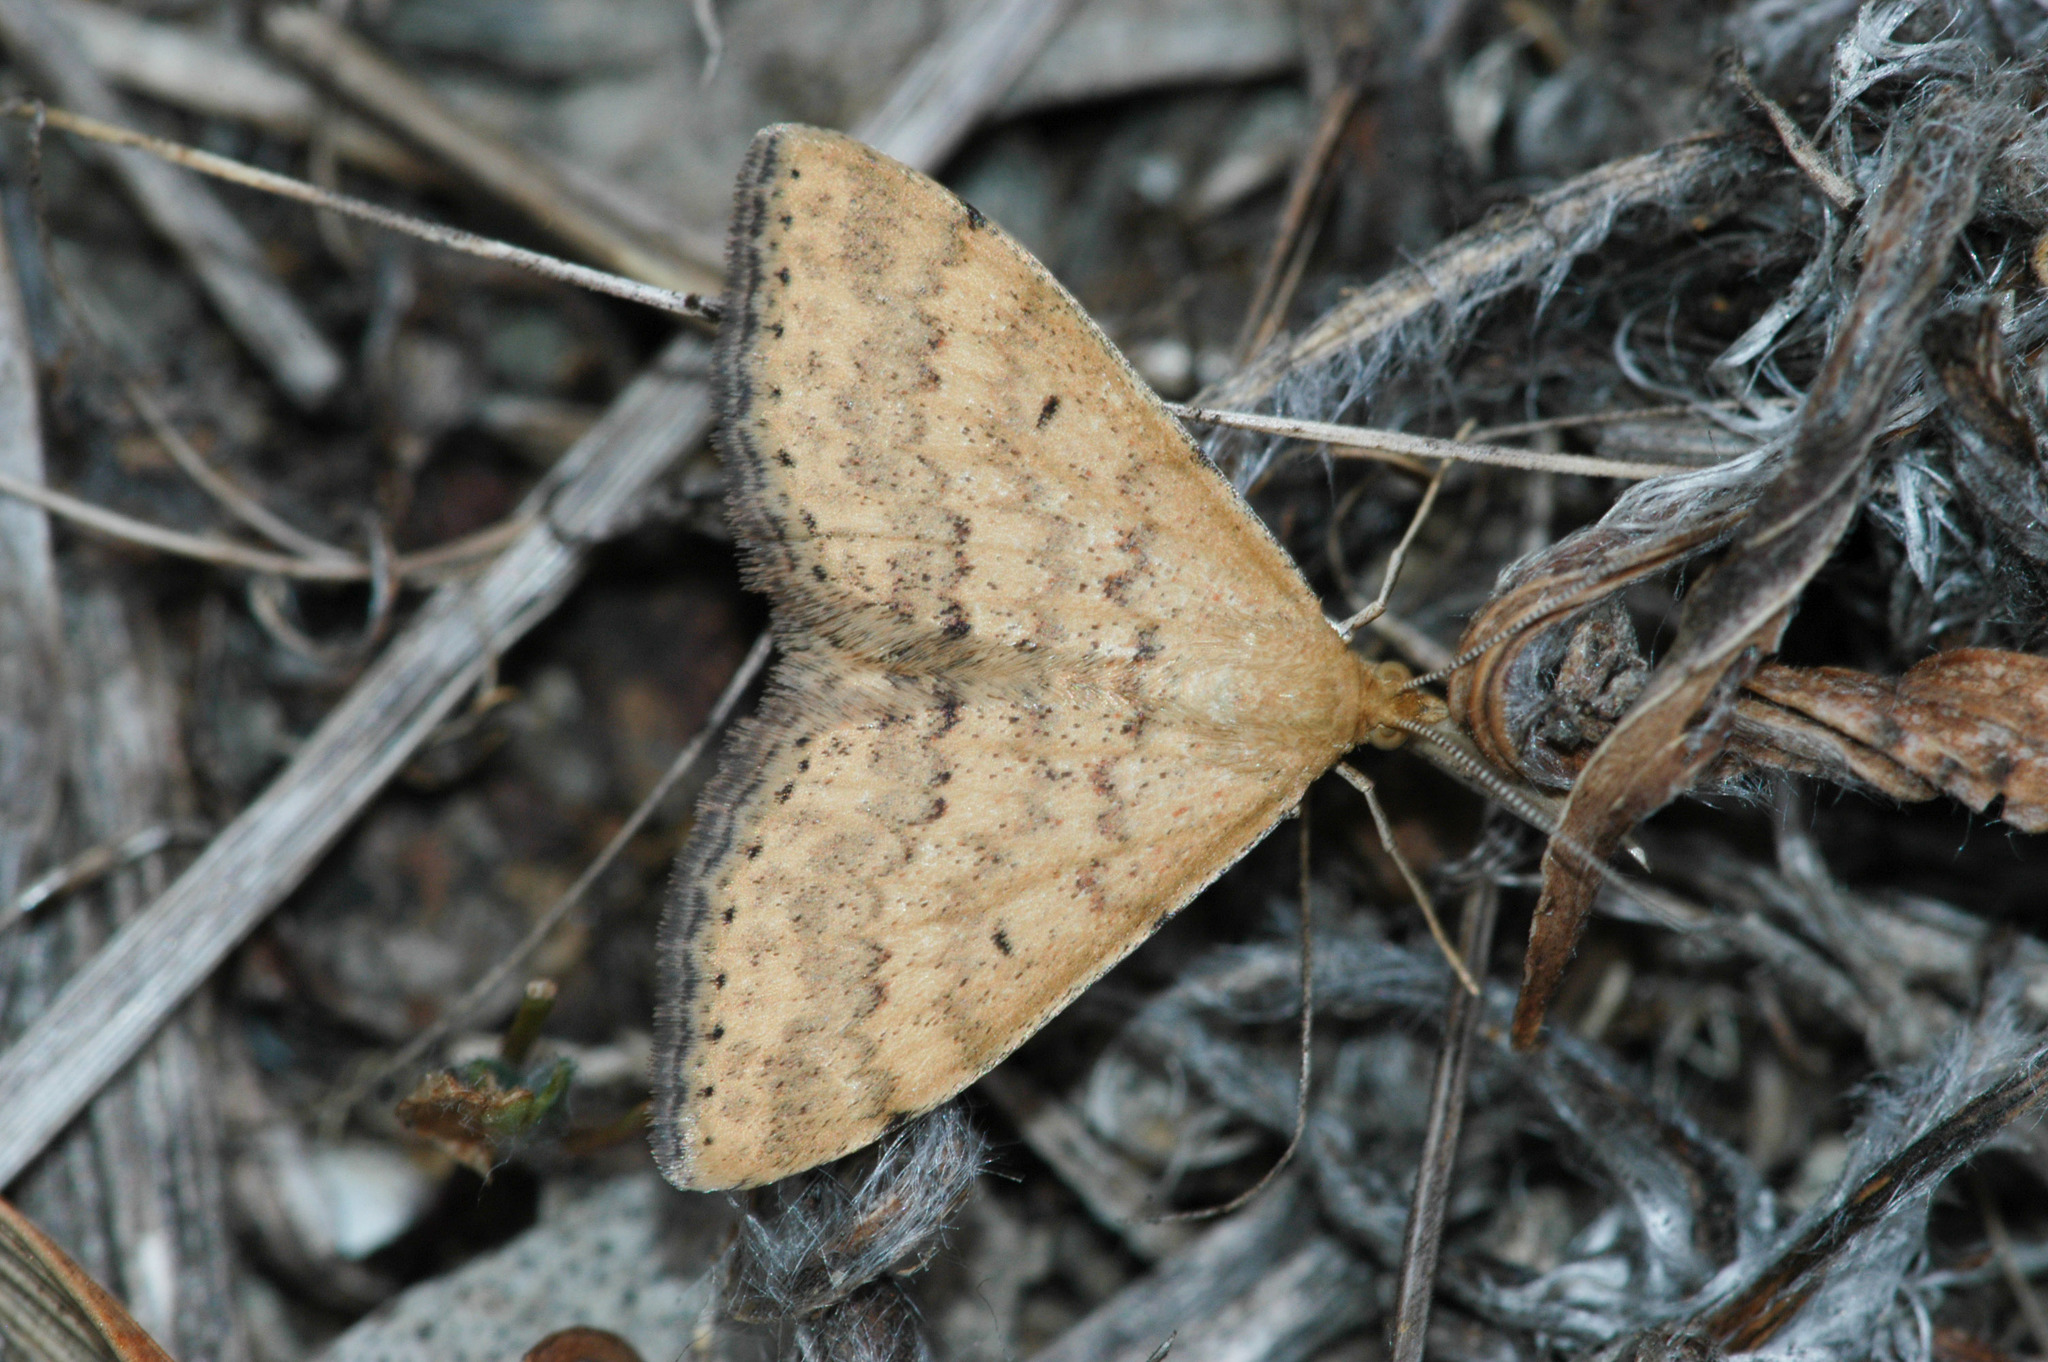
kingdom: Animalia
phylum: Arthropoda
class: Insecta
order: Lepidoptera
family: Geometridae
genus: Scopula
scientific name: Scopula rubraria
